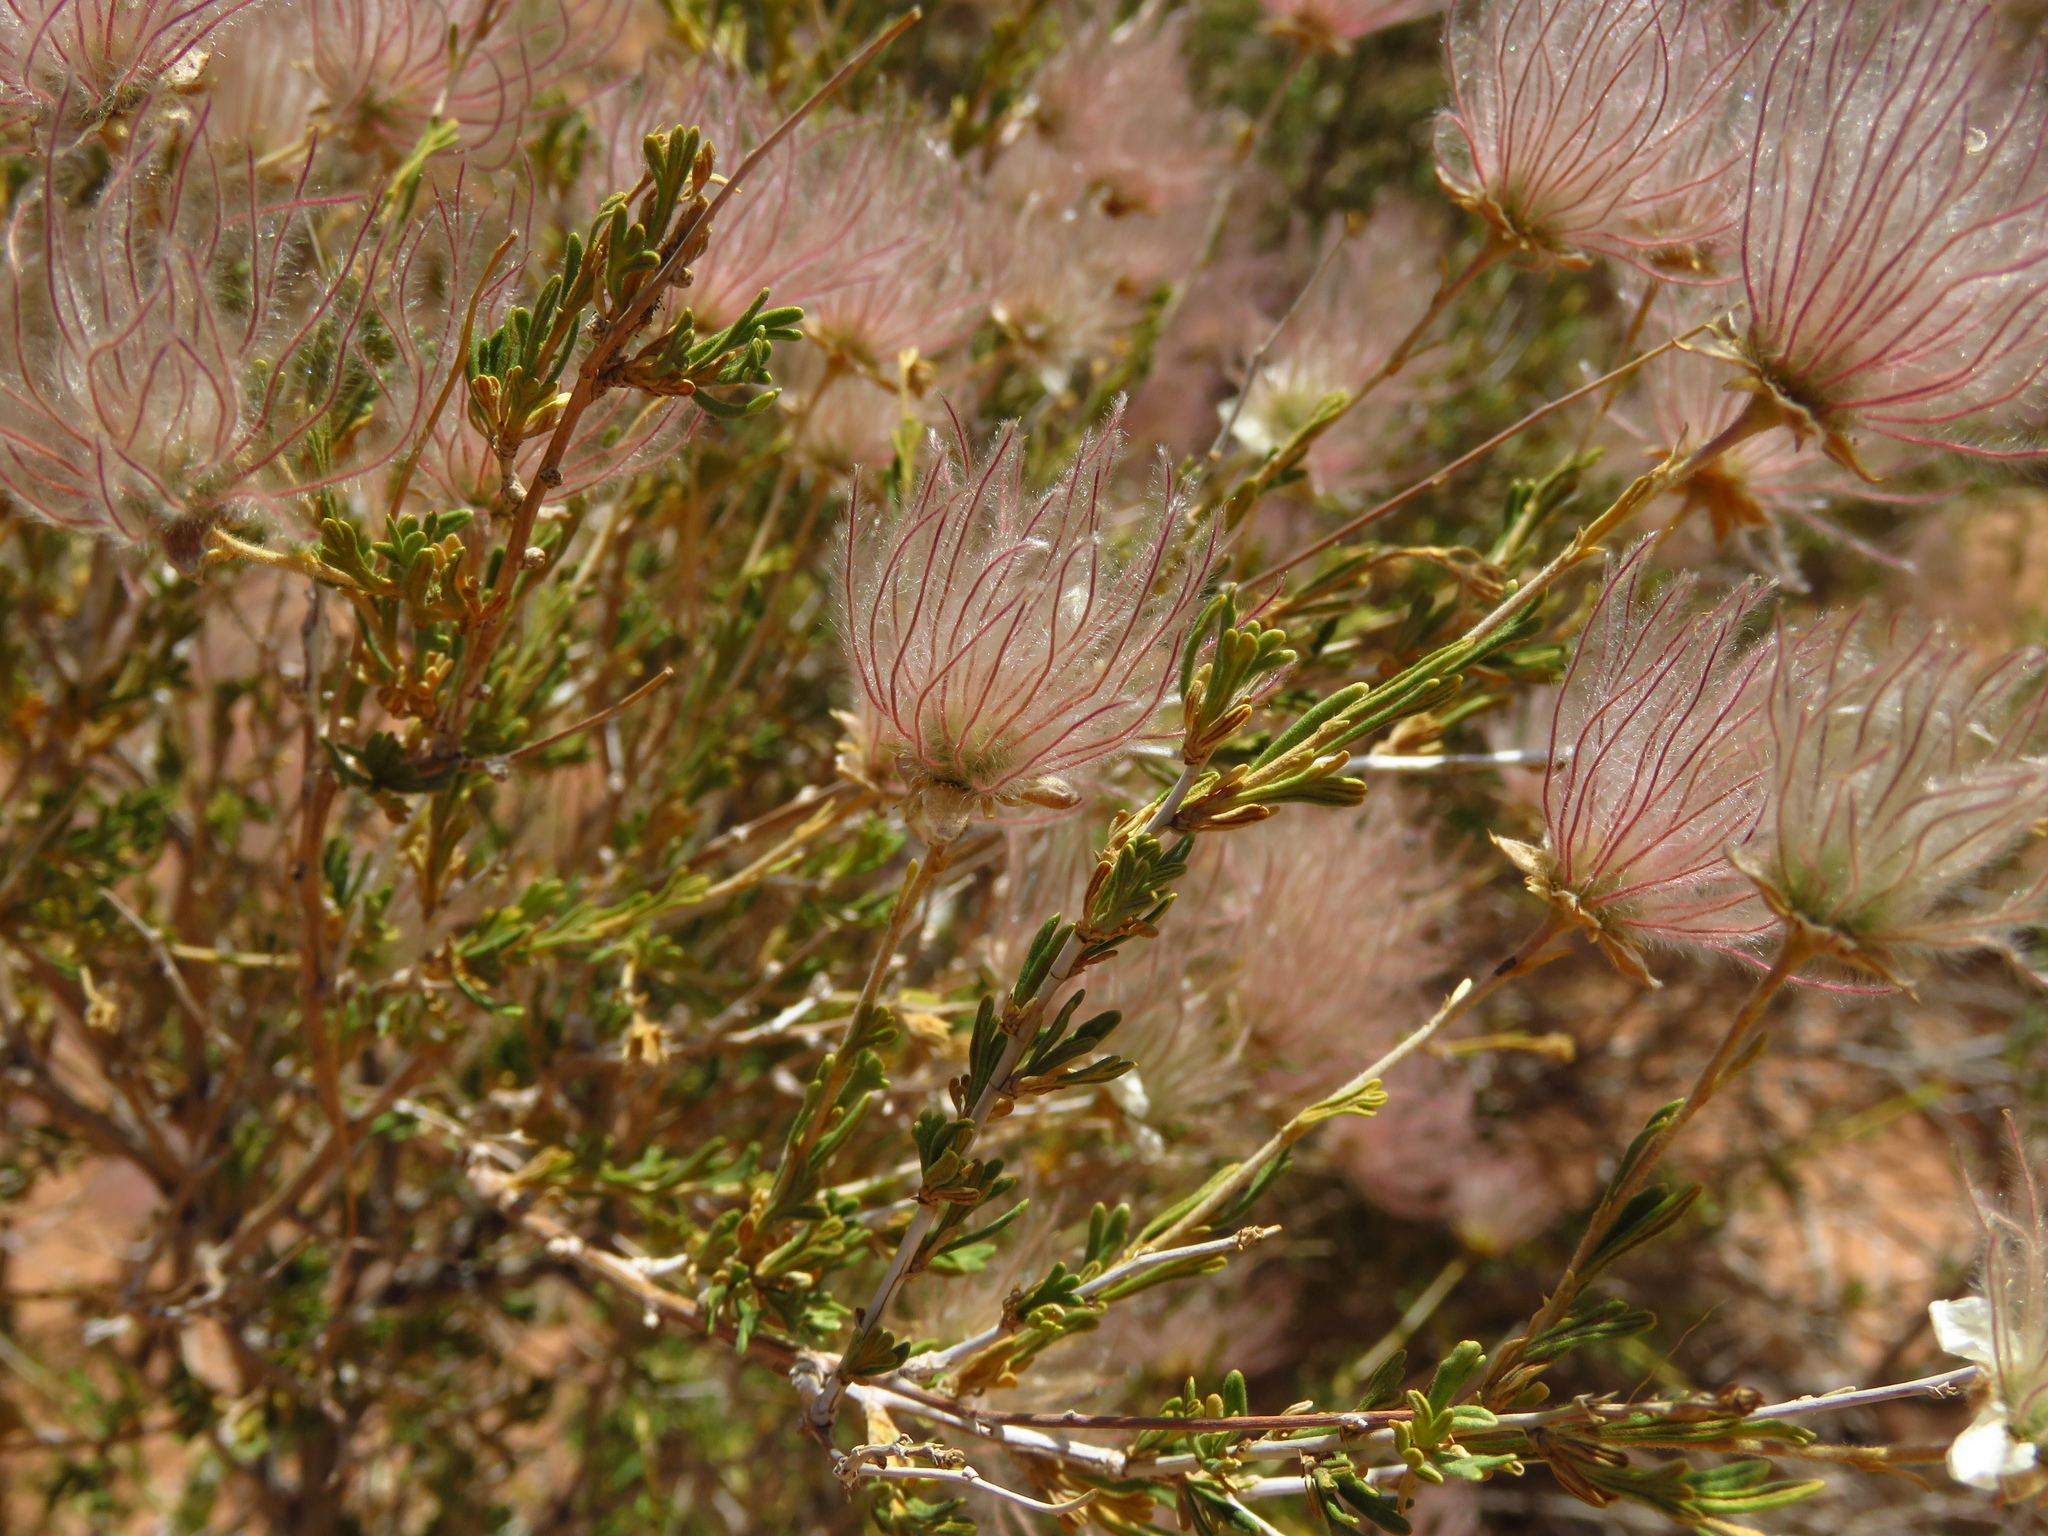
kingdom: Plantae
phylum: Tracheophyta
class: Magnoliopsida
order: Rosales
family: Rosaceae
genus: Fallugia
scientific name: Fallugia paradoxa
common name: Apache-plume
